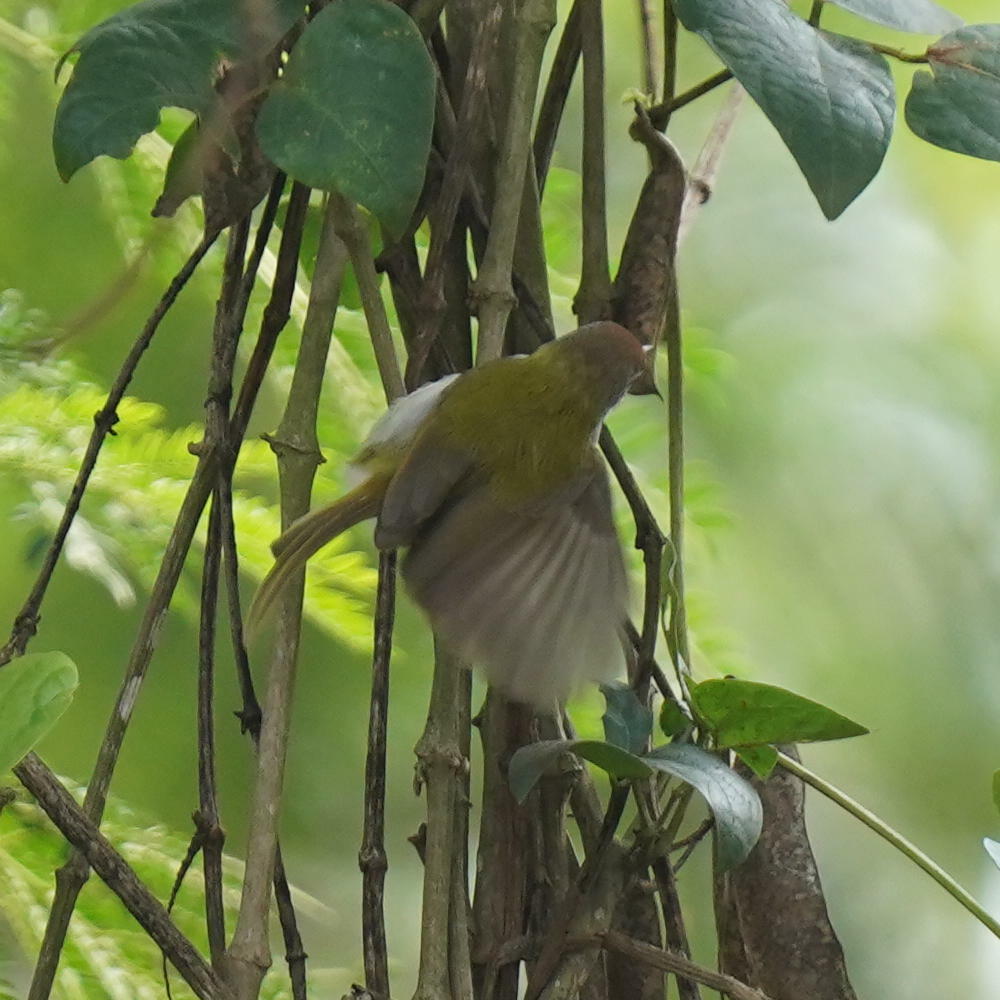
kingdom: Animalia
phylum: Chordata
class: Aves
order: Passeriformes
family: Cisticolidae
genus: Orthotomus
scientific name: Orthotomus sutorius
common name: Common tailorbird
